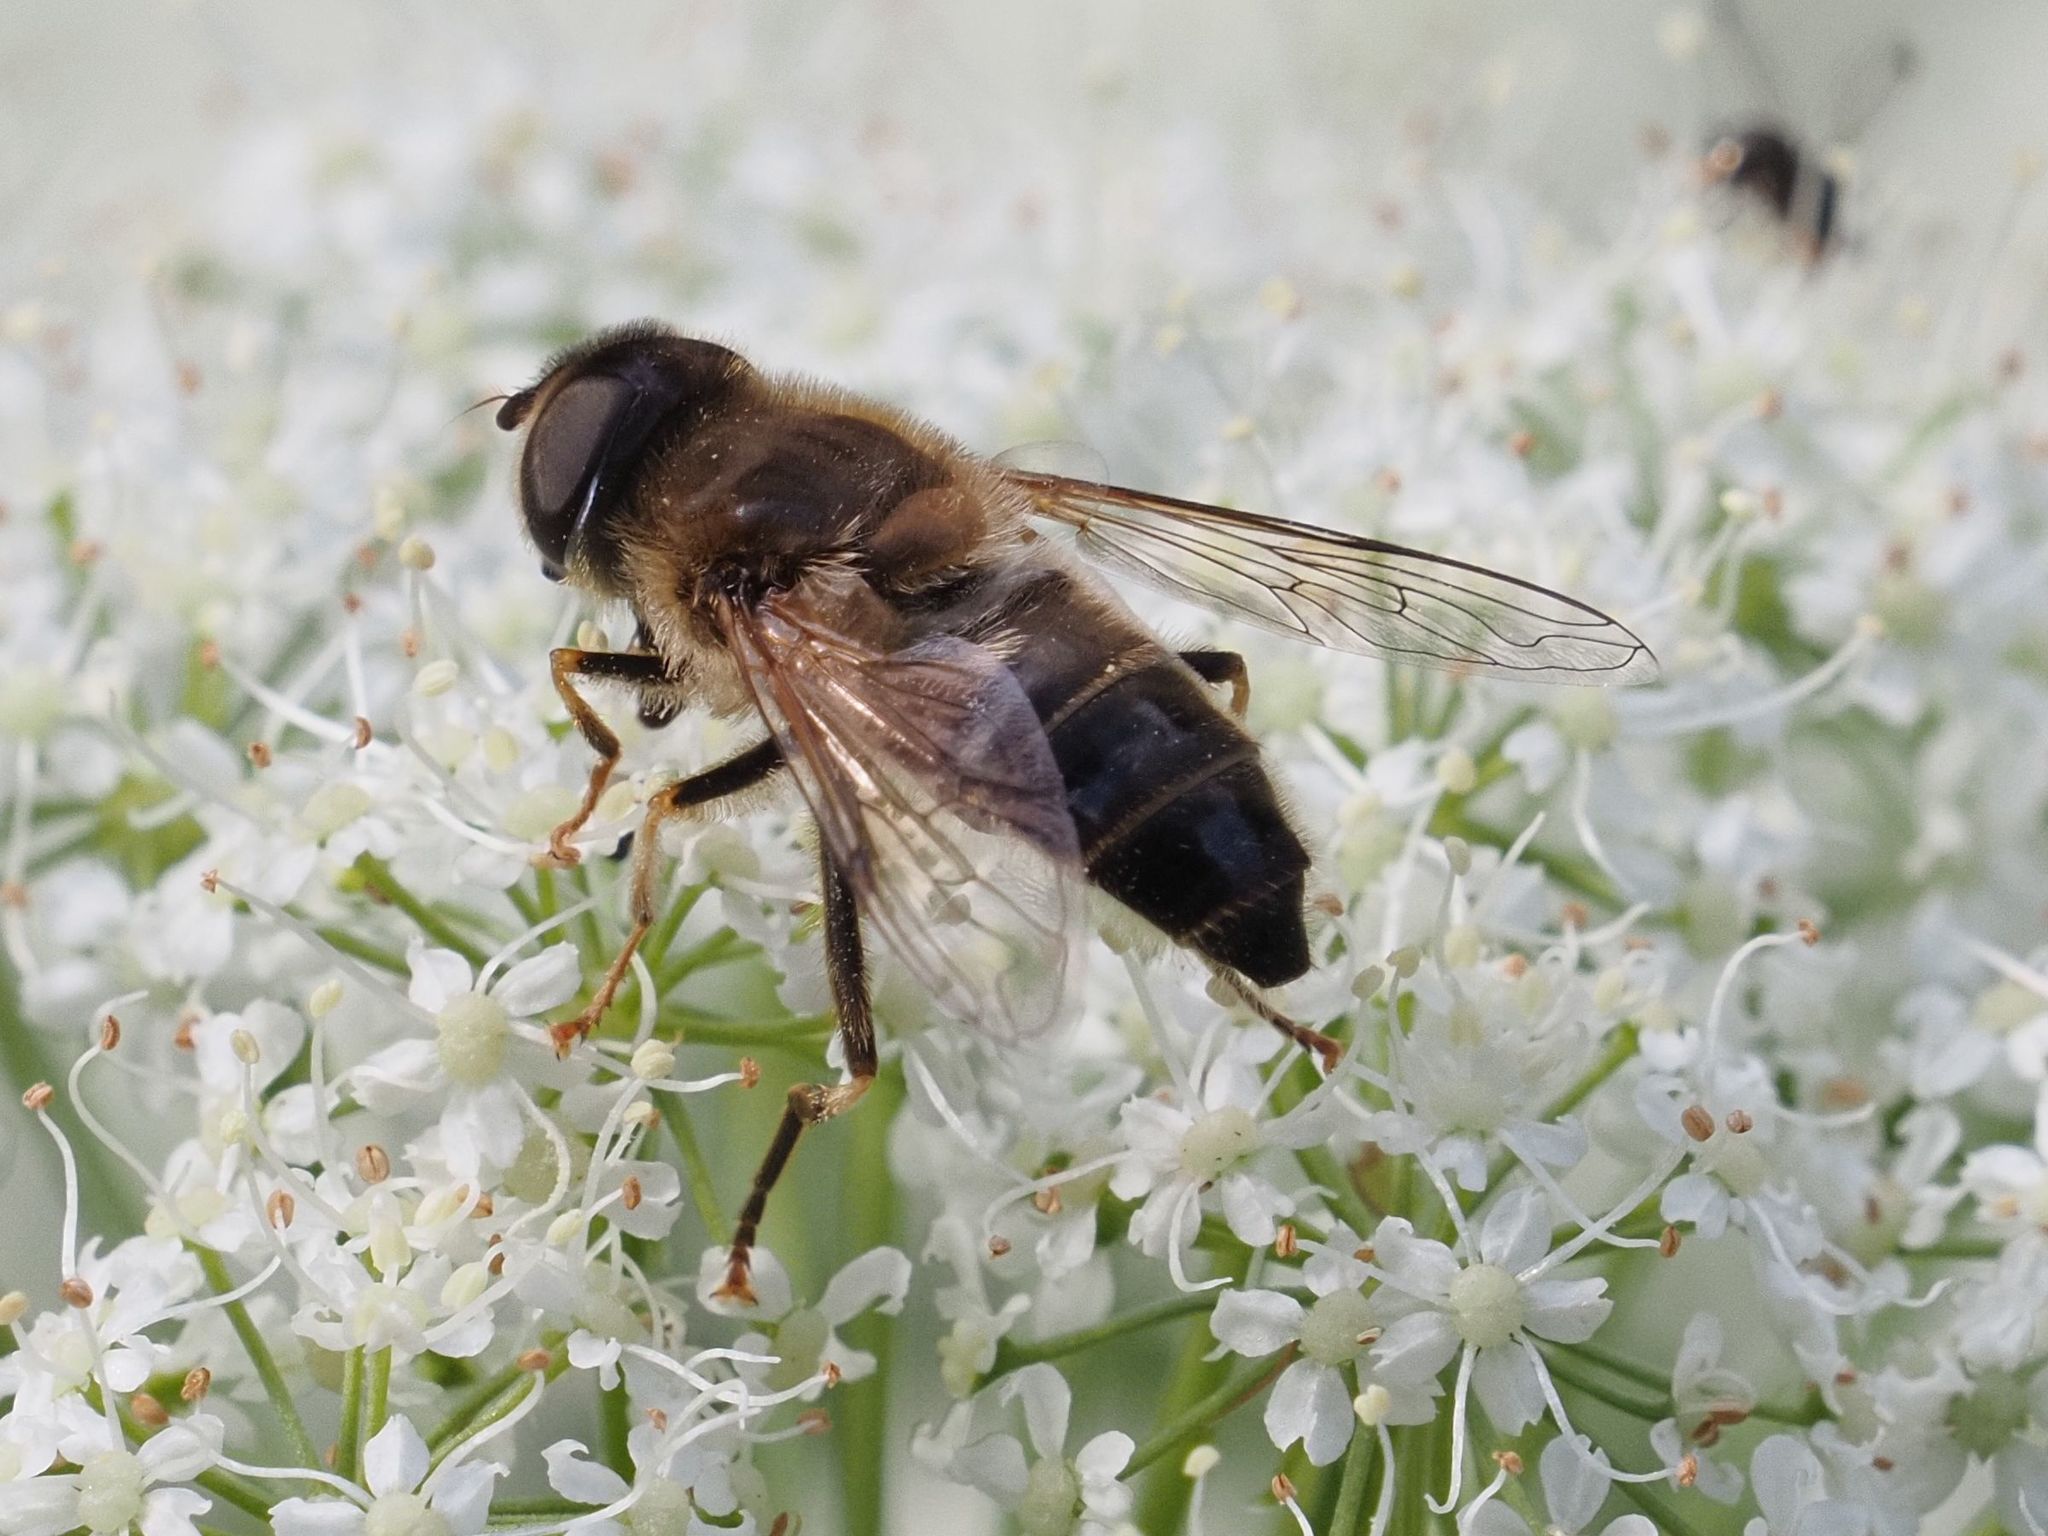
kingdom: Animalia
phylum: Arthropoda
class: Insecta
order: Diptera
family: Syrphidae
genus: Eristalis
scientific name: Eristalis pertinax
